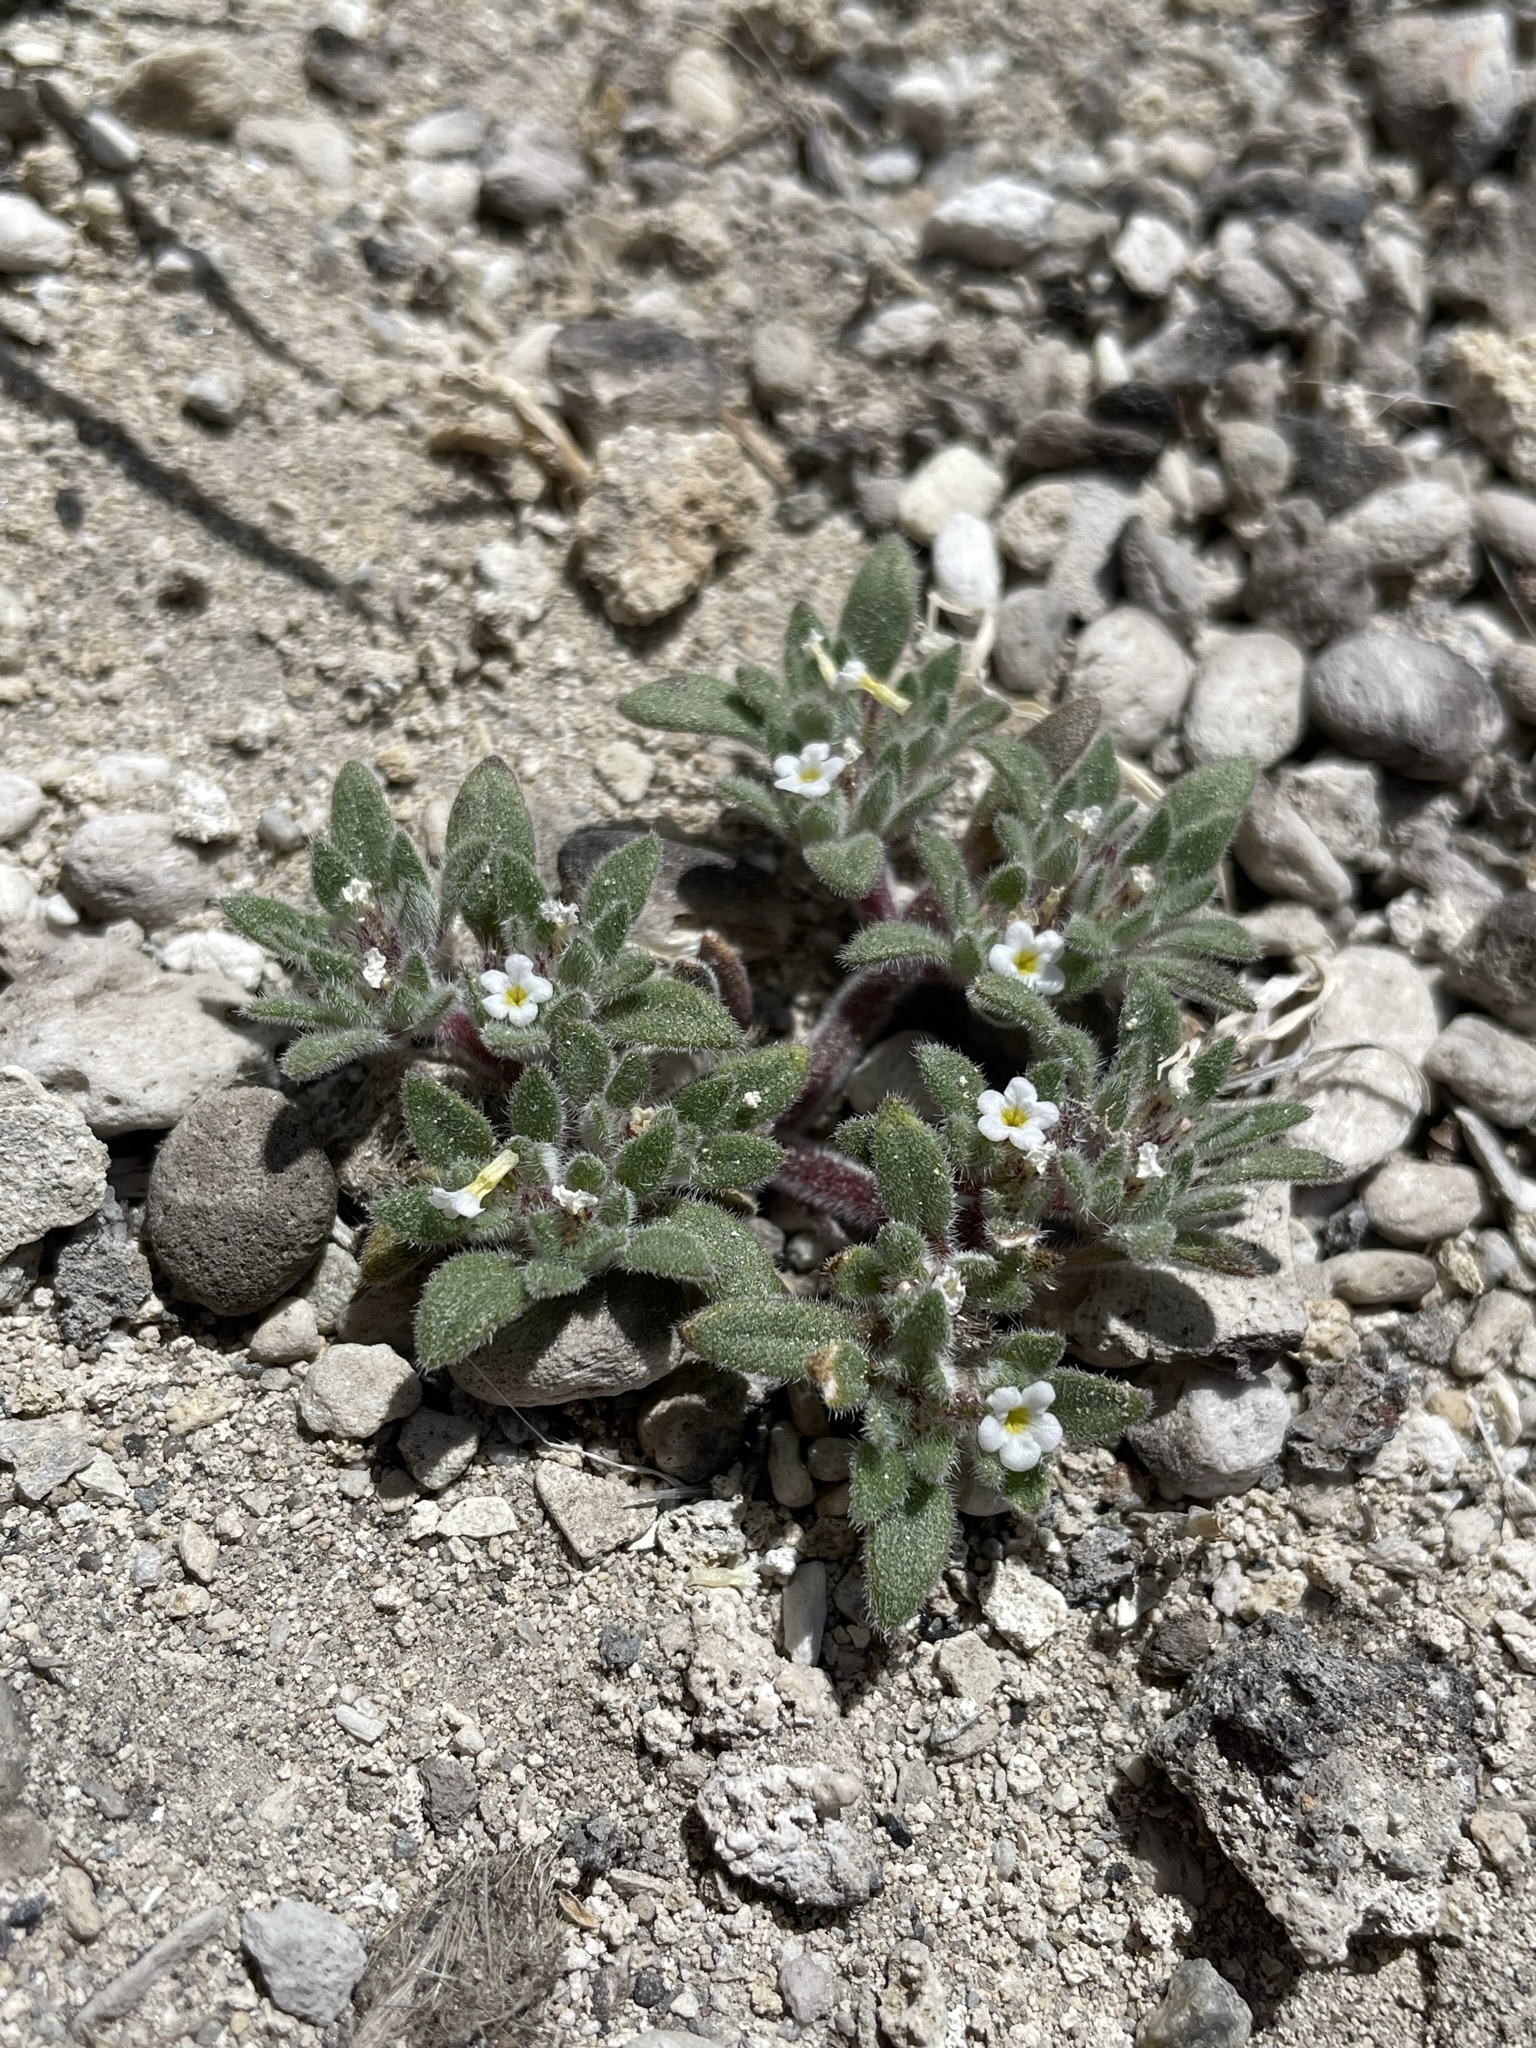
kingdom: Plantae
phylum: Tracheophyta
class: Magnoliopsida
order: Boraginales
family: Namaceae
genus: Nama
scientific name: Nama densa
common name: Leafy nama
